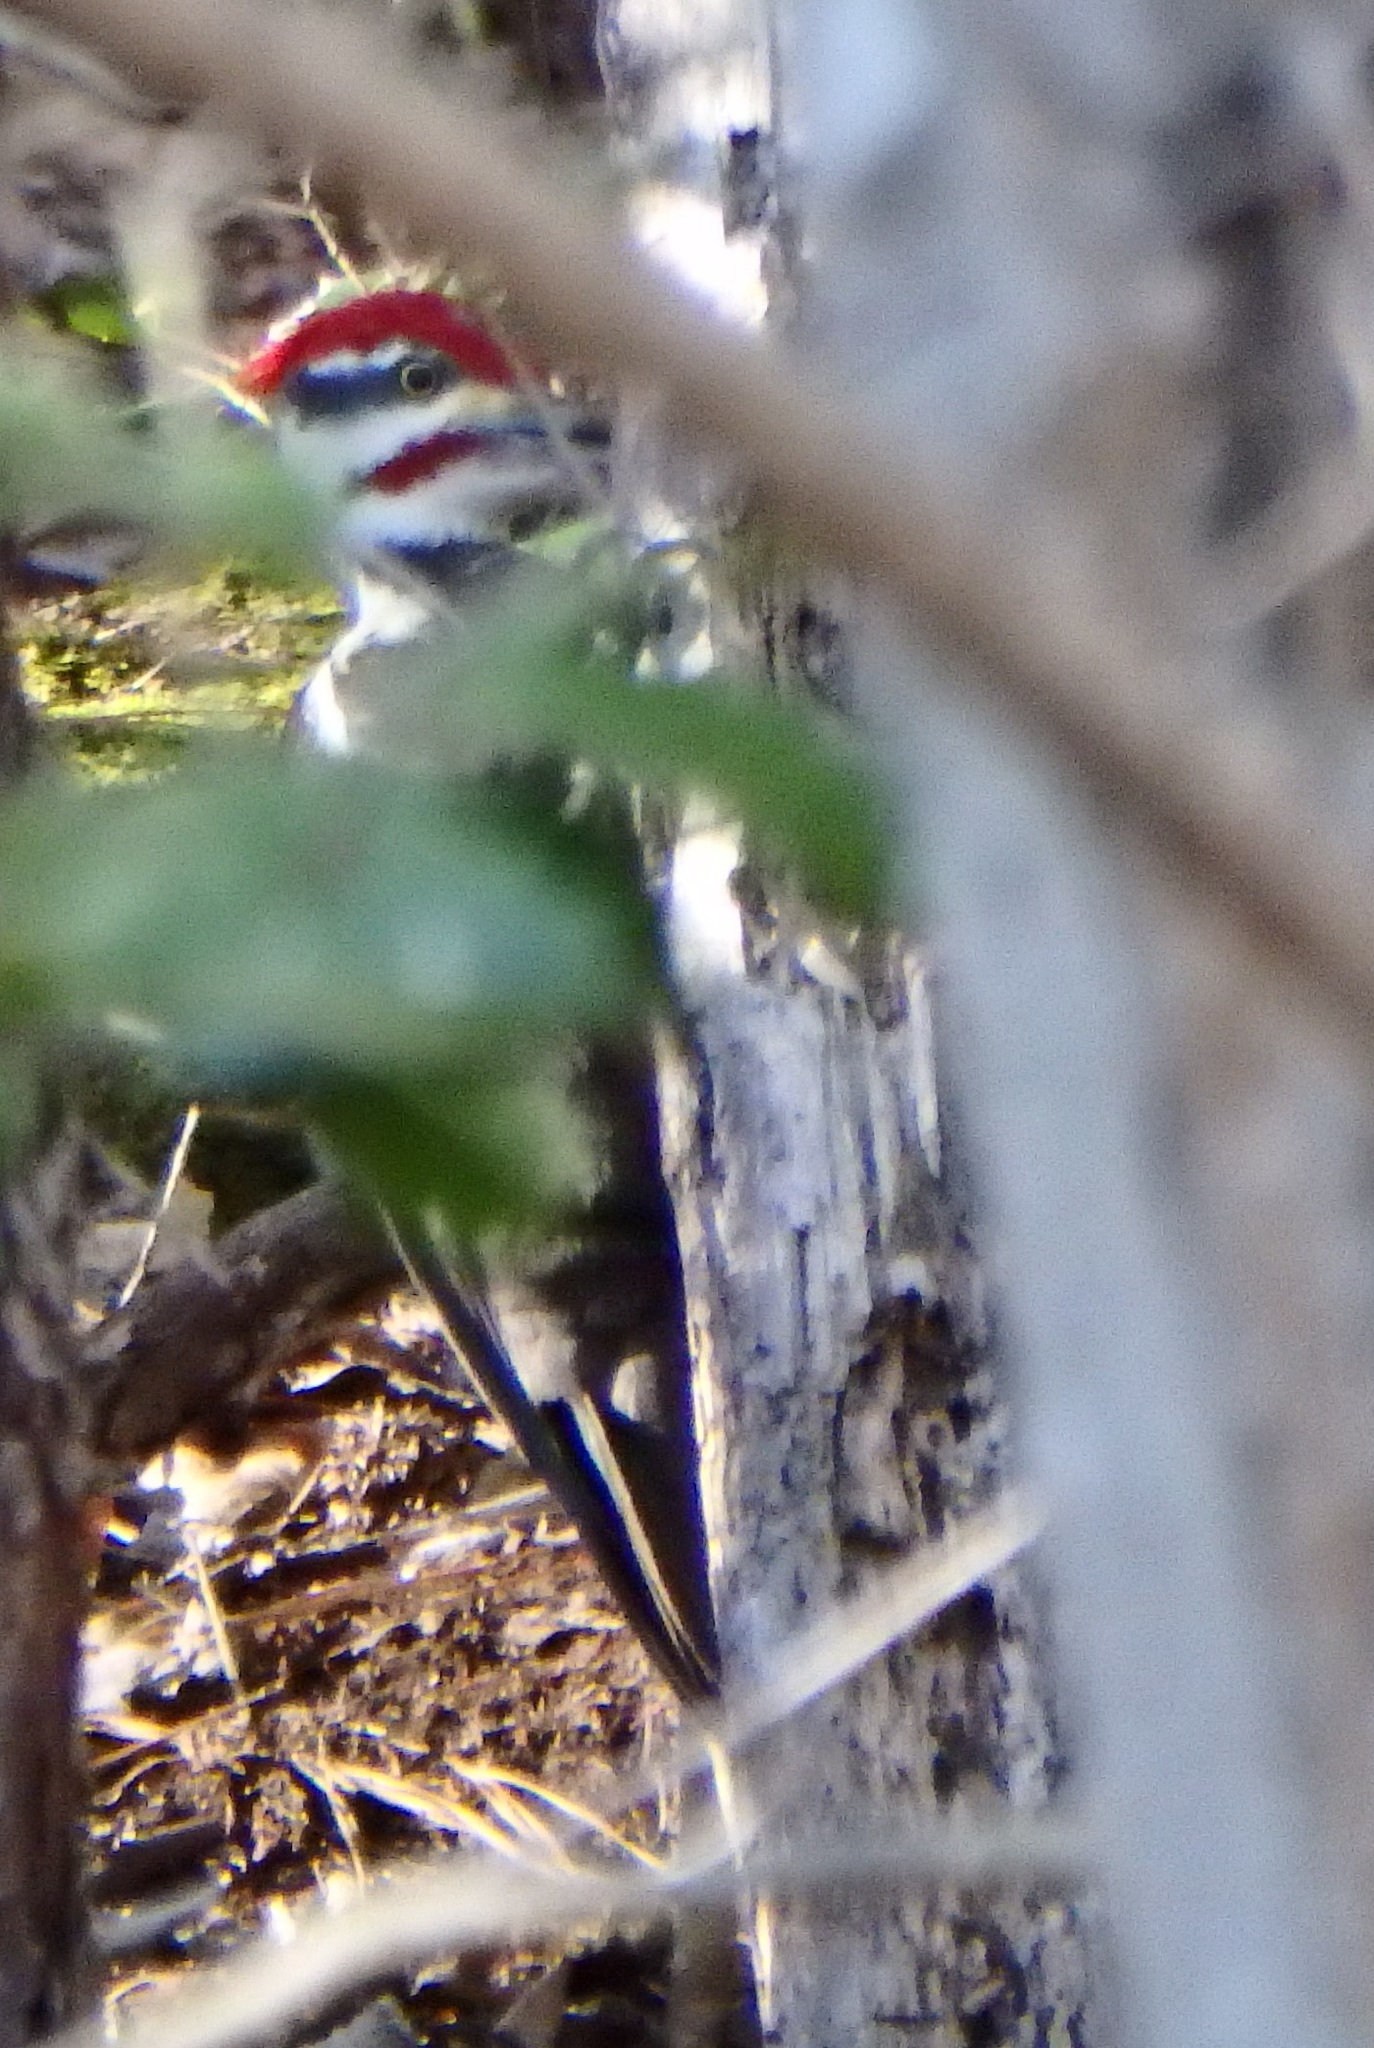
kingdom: Animalia
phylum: Chordata
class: Aves
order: Piciformes
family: Picidae
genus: Dryocopus
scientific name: Dryocopus pileatus
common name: Pileated woodpecker
